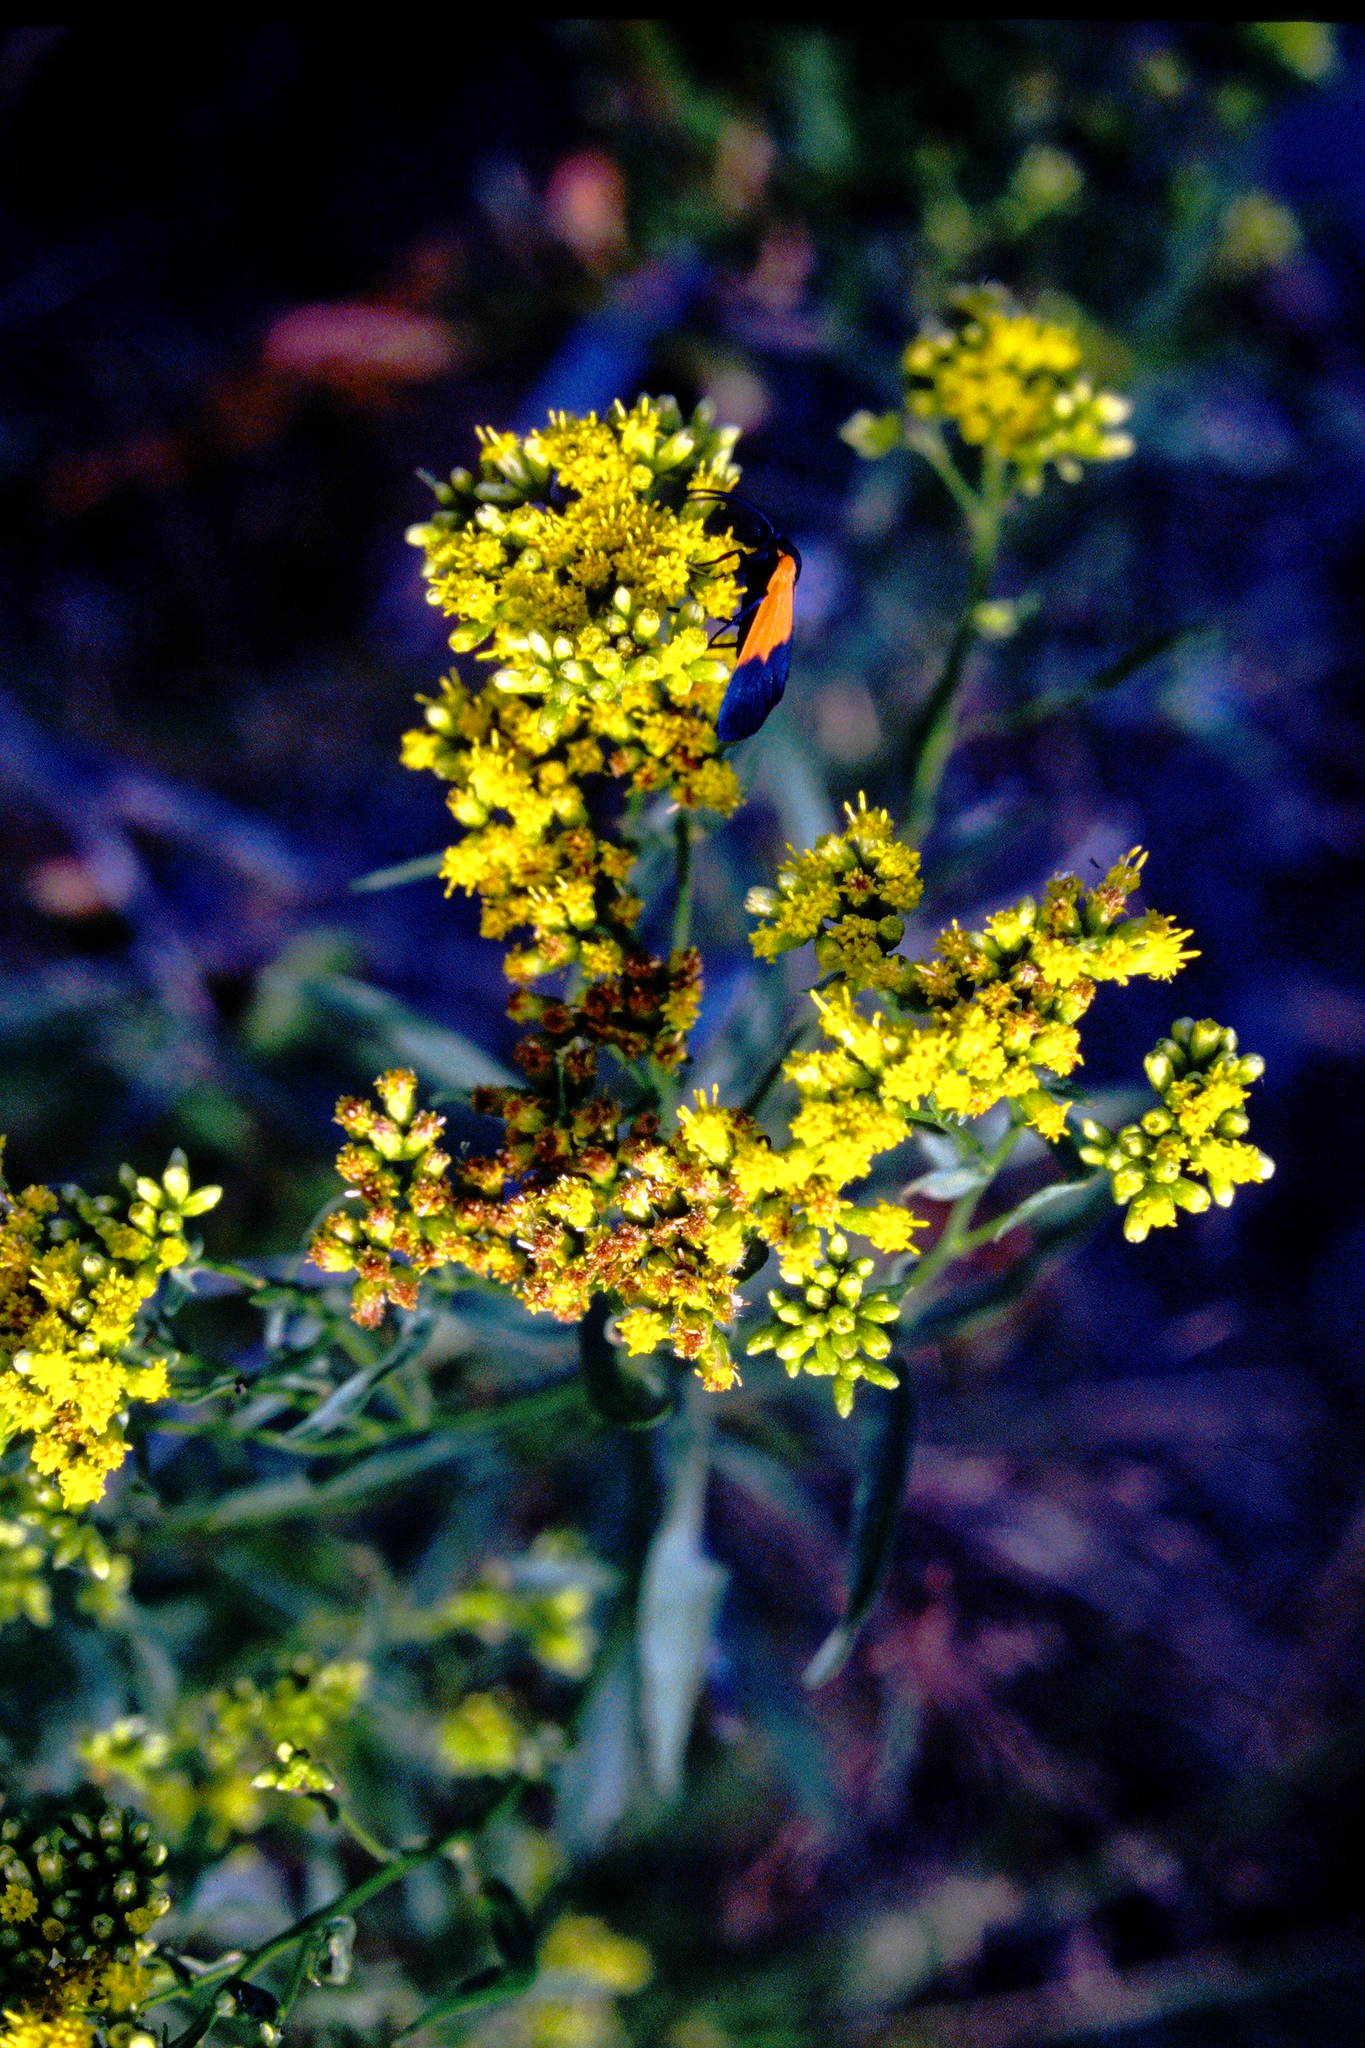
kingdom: Animalia
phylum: Arthropoda
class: Insecta
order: Lepidoptera
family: Erebidae
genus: Lycomorpha
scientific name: Lycomorpha pholus
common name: Black-and-yellow lichen moth
